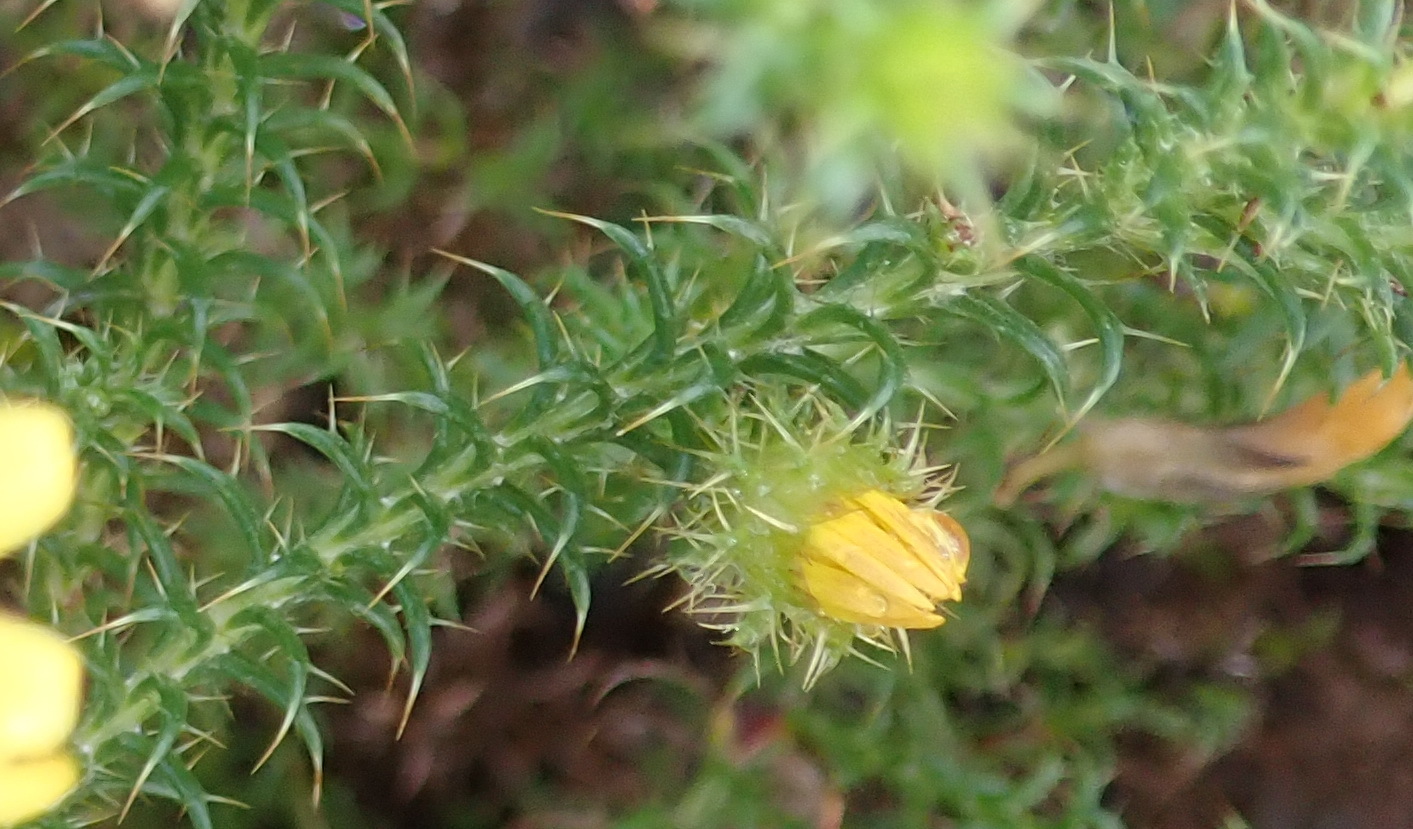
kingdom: Plantae
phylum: Tracheophyta
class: Magnoliopsida
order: Asterales
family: Asteraceae
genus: Cullumia
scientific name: Cullumia decurrens
